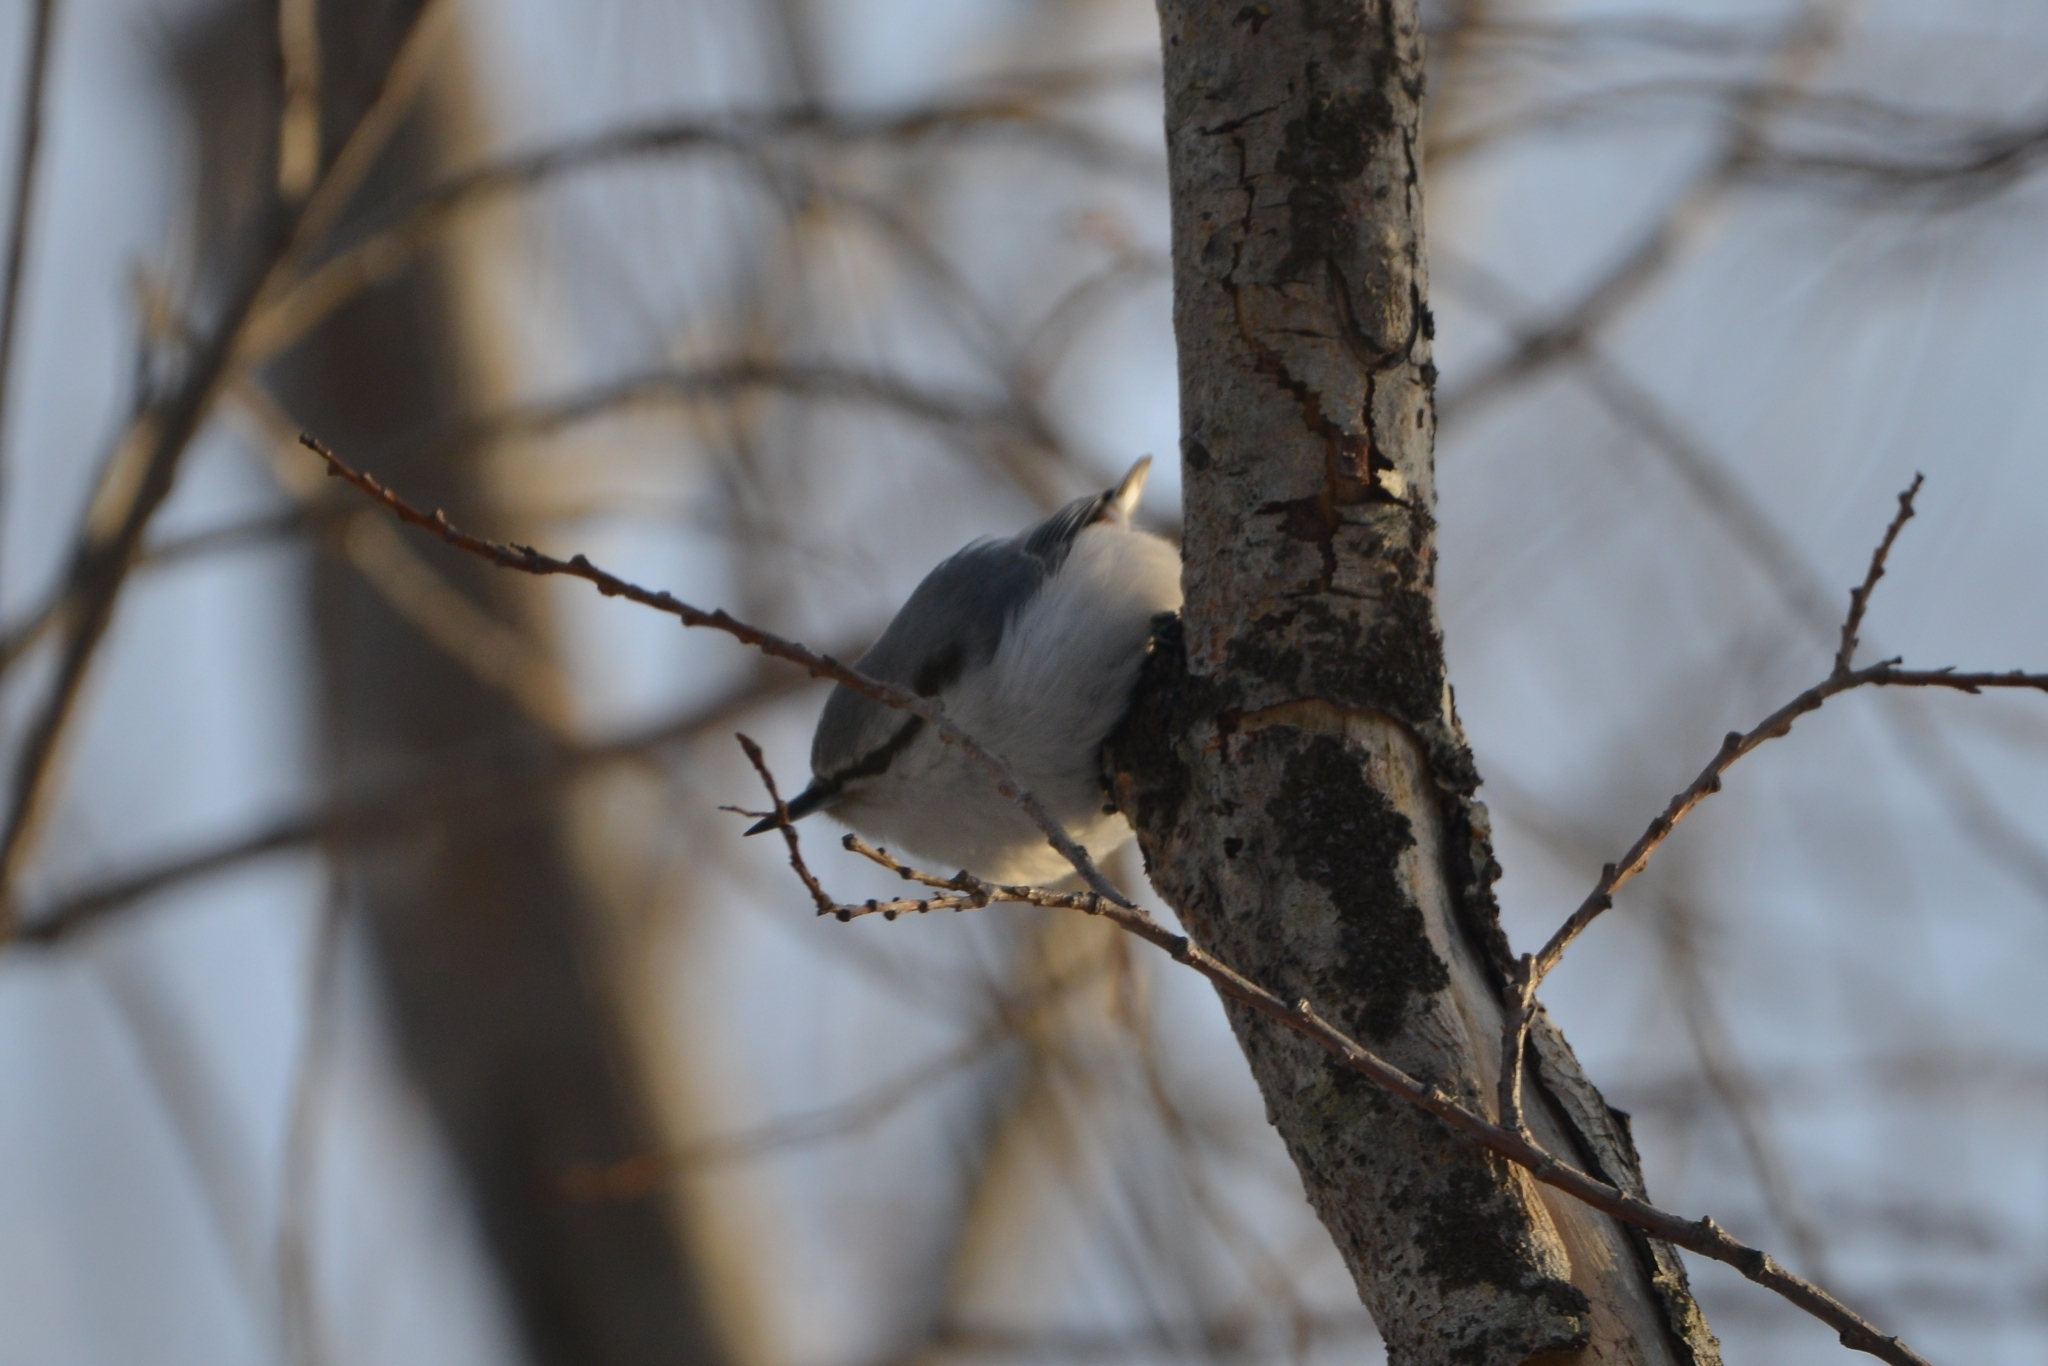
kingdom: Animalia
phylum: Chordata
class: Aves
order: Passeriformes
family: Sittidae
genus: Sitta
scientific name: Sitta europaea
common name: Eurasian nuthatch
